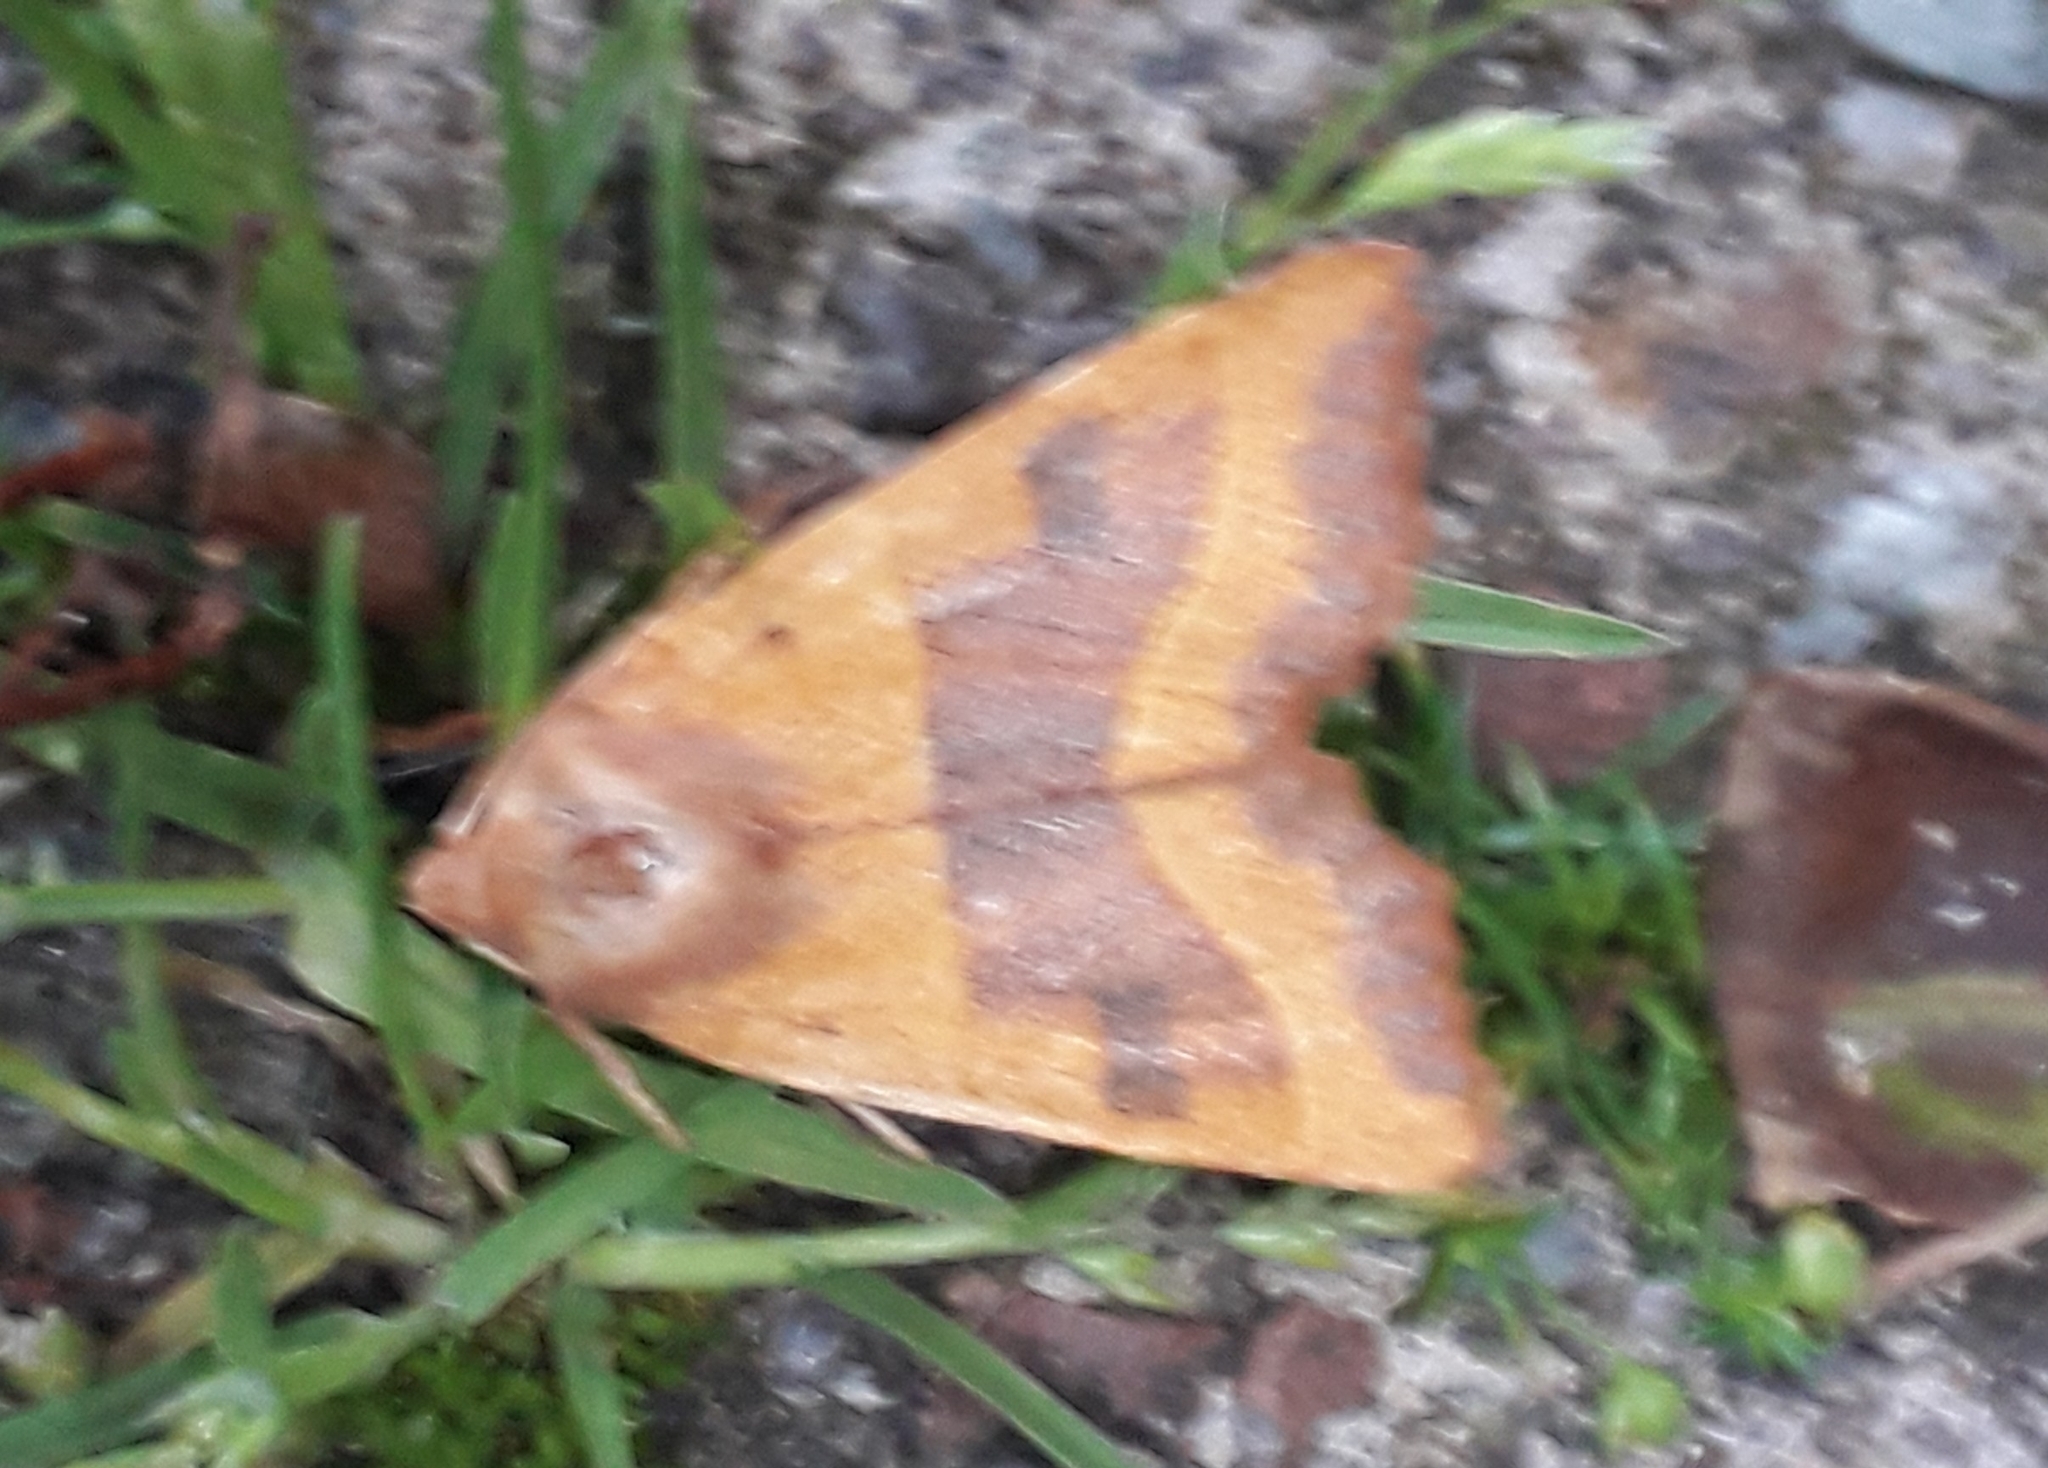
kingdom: Animalia
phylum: Arthropoda
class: Insecta
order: Lepidoptera
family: Noctuidae
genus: Atethmia
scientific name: Atethmia centrago
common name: Centre-barred sallow
